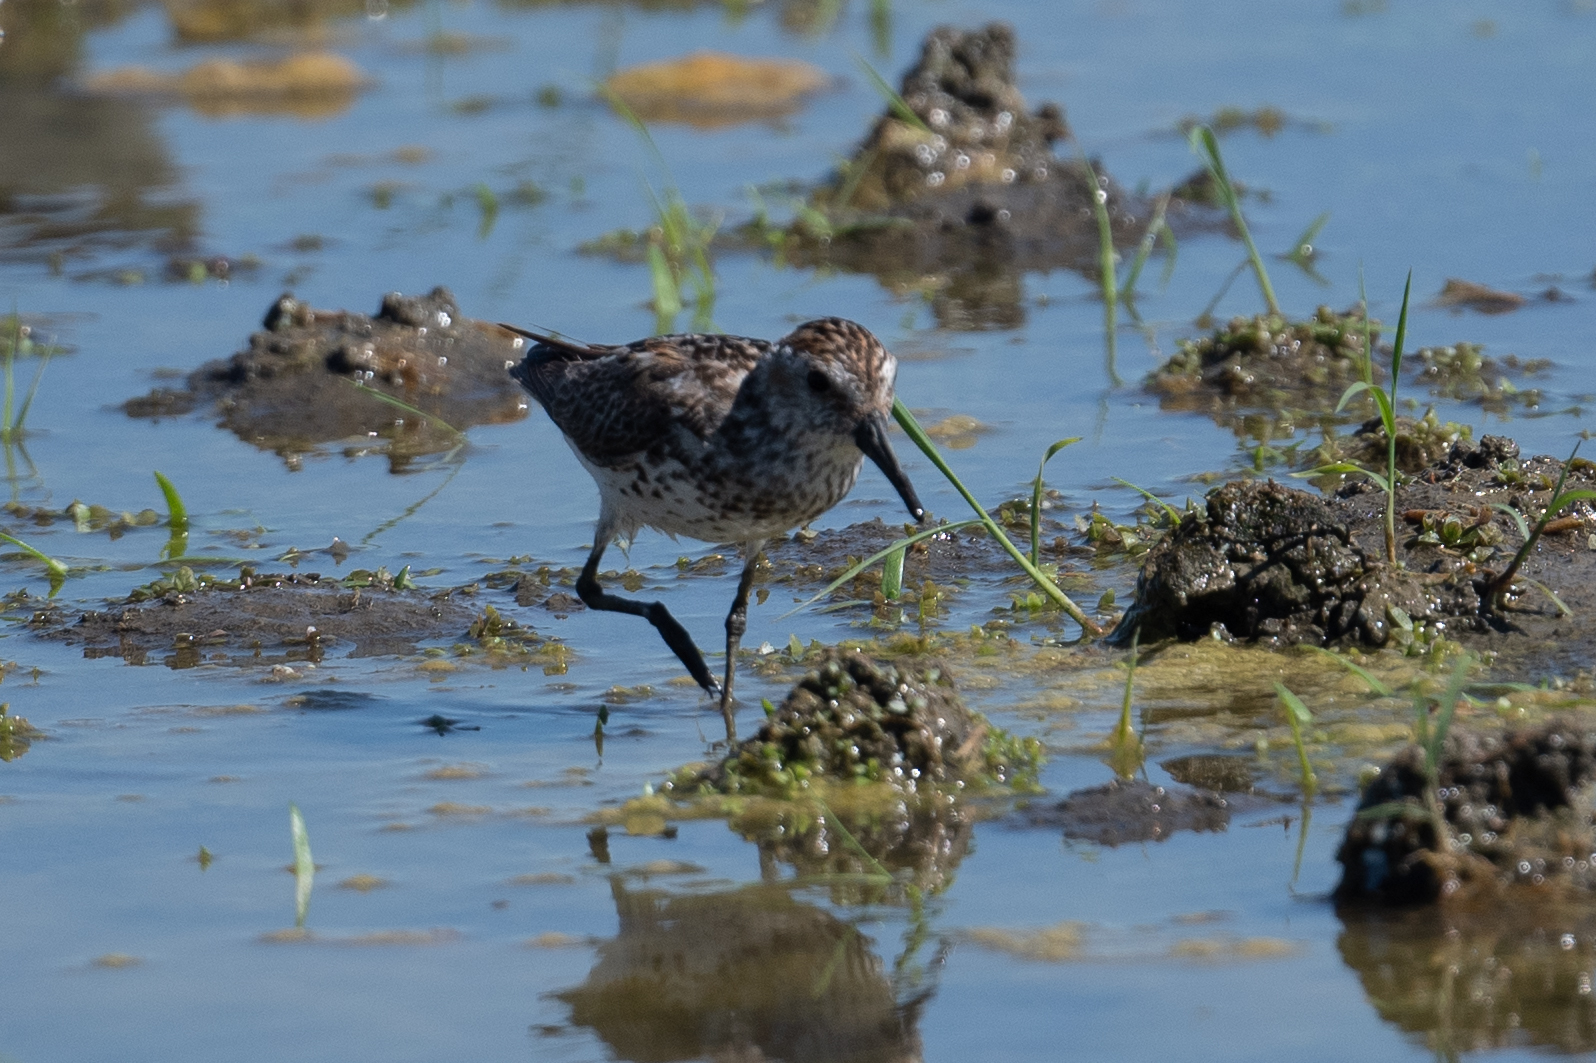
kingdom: Animalia
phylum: Chordata
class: Aves
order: Charadriiformes
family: Scolopacidae
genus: Calidris
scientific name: Calidris mauri
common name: Western sandpiper
